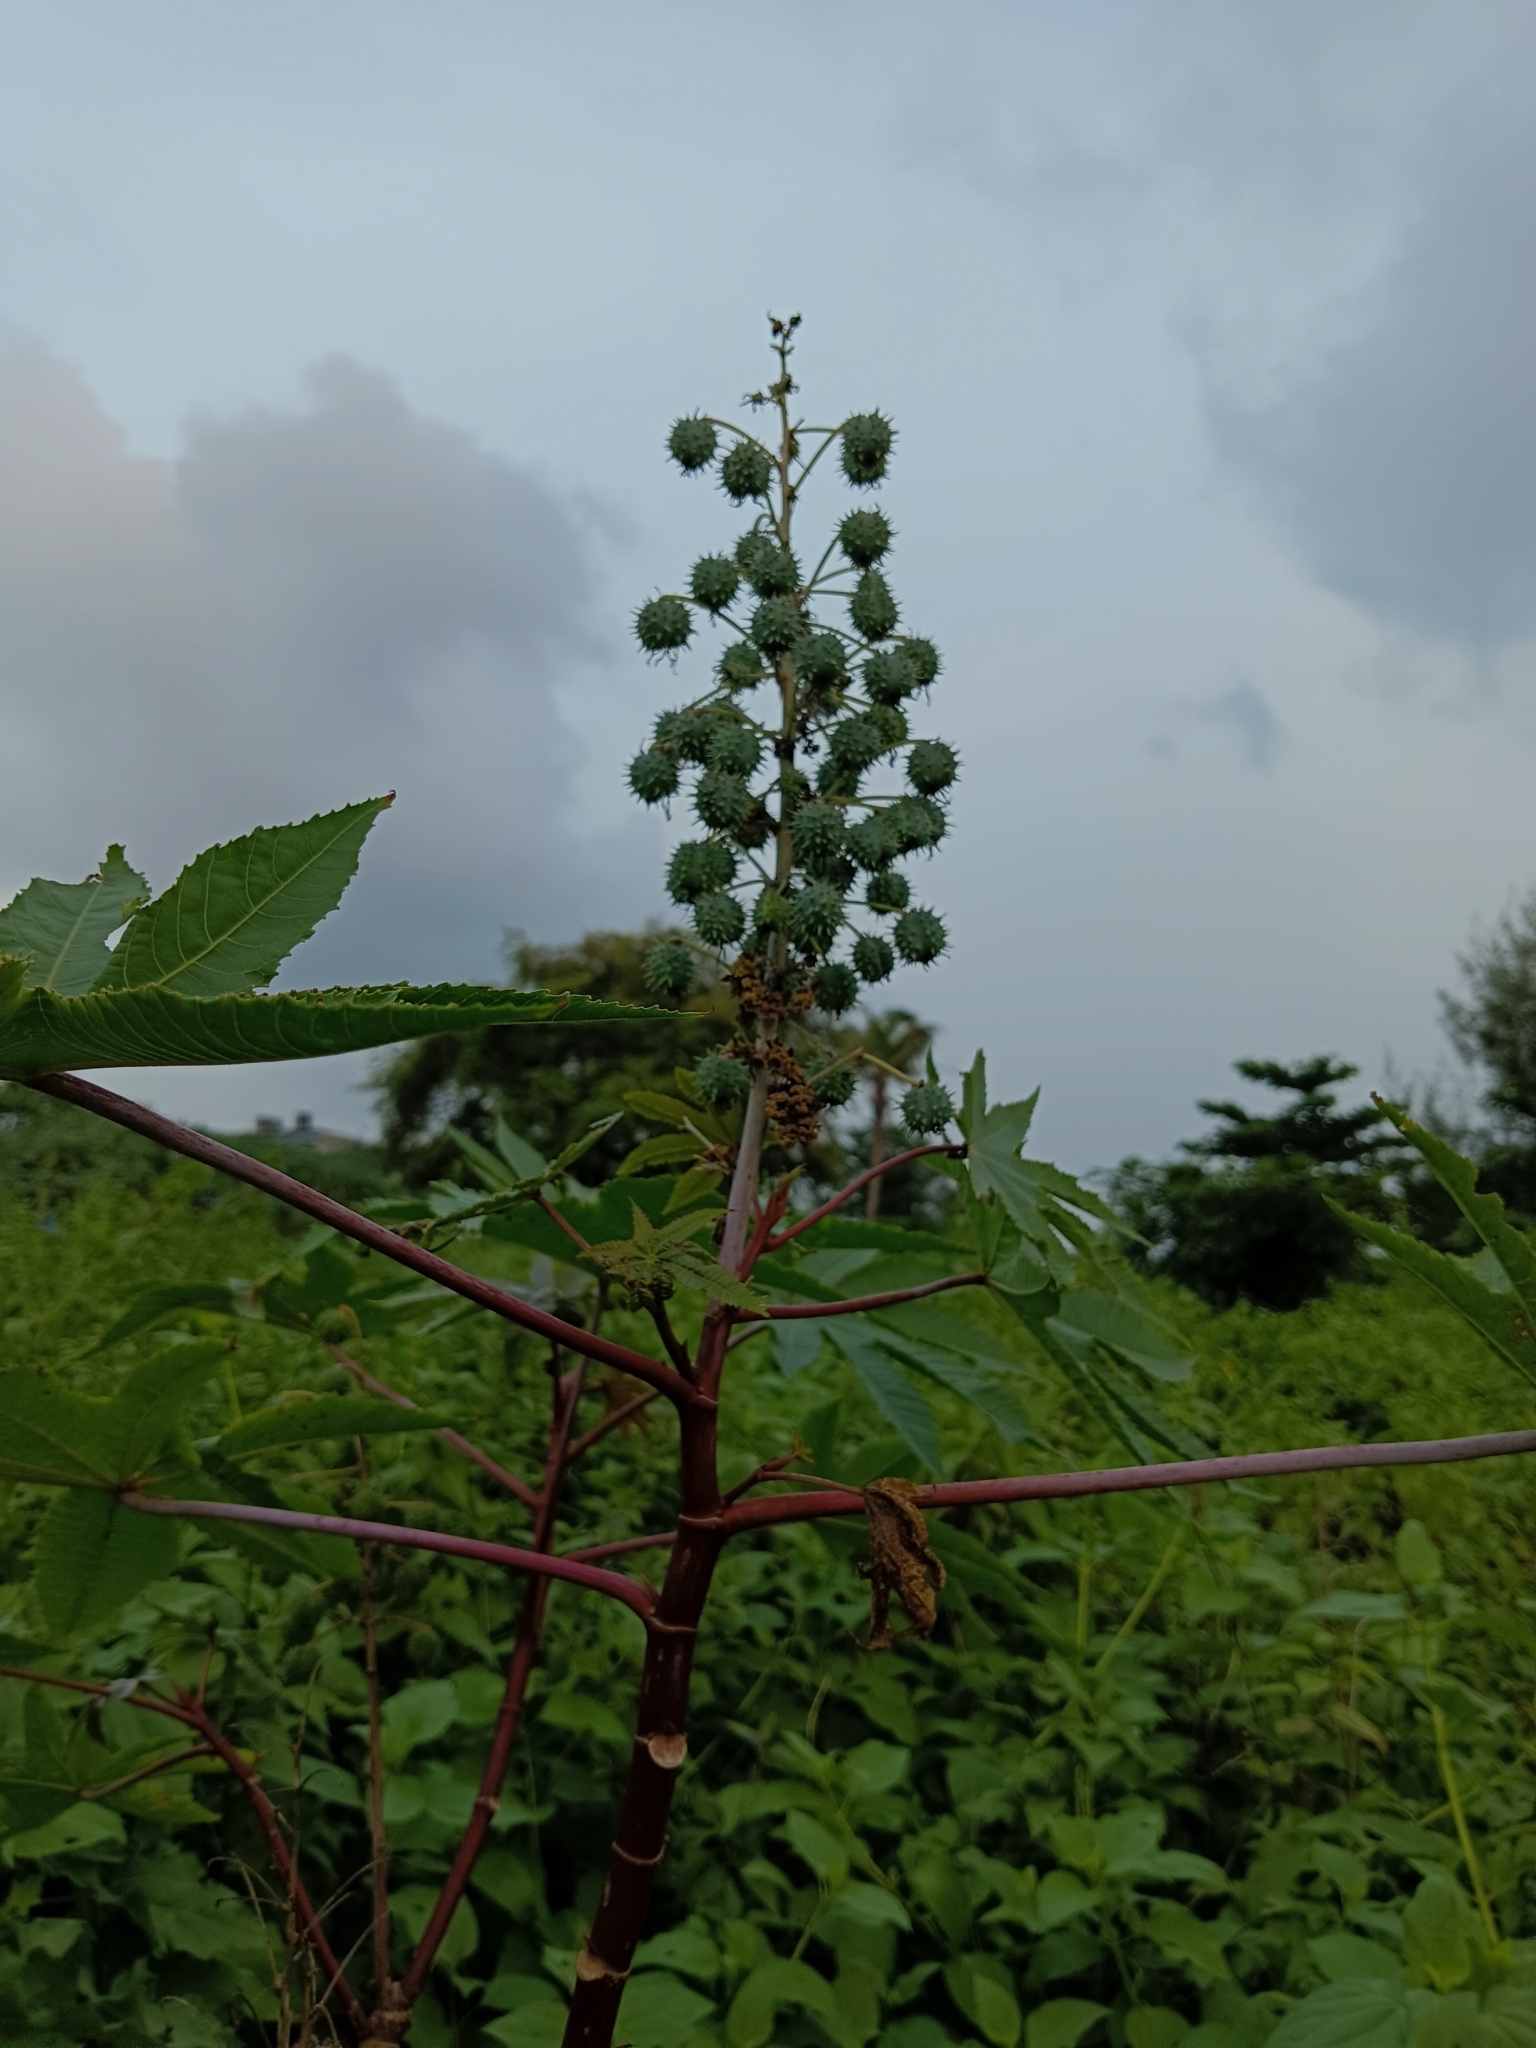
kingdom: Plantae
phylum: Tracheophyta
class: Magnoliopsida
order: Malpighiales
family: Euphorbiaceae
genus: Ricinus
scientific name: Ricinus communis
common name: Castor-oil-plant
